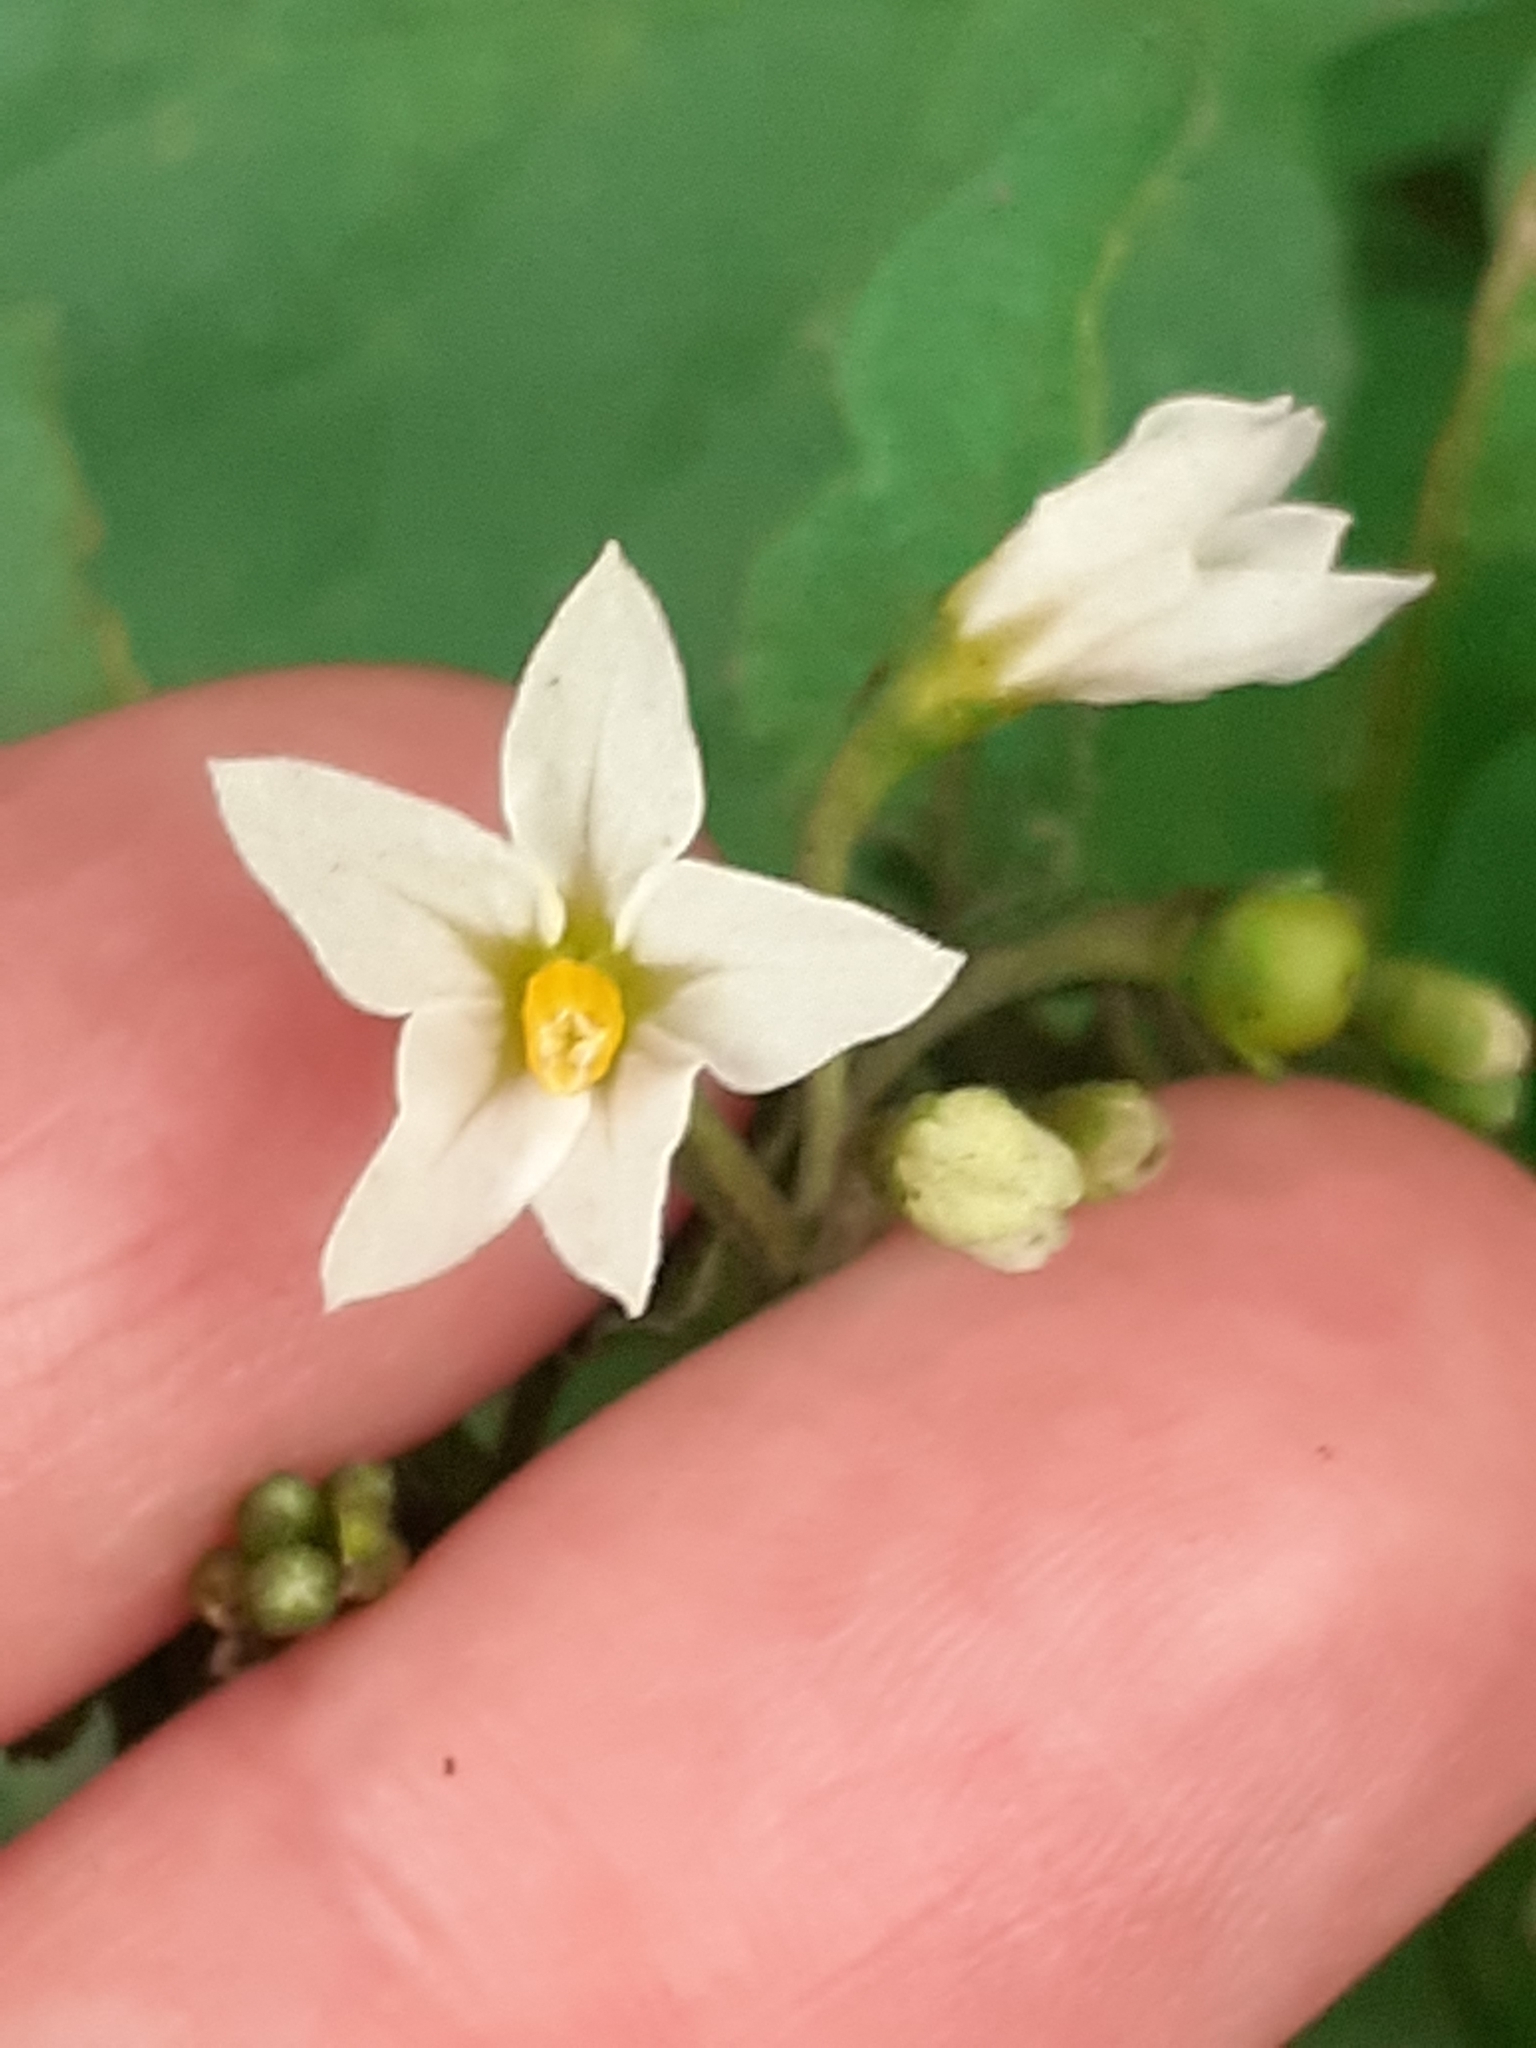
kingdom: Plantae
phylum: Tracheophyta
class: Magnoliopsida
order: Solanales
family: Solanaceae
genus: Solanum
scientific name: Solanum nigrum
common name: Black nightshade
